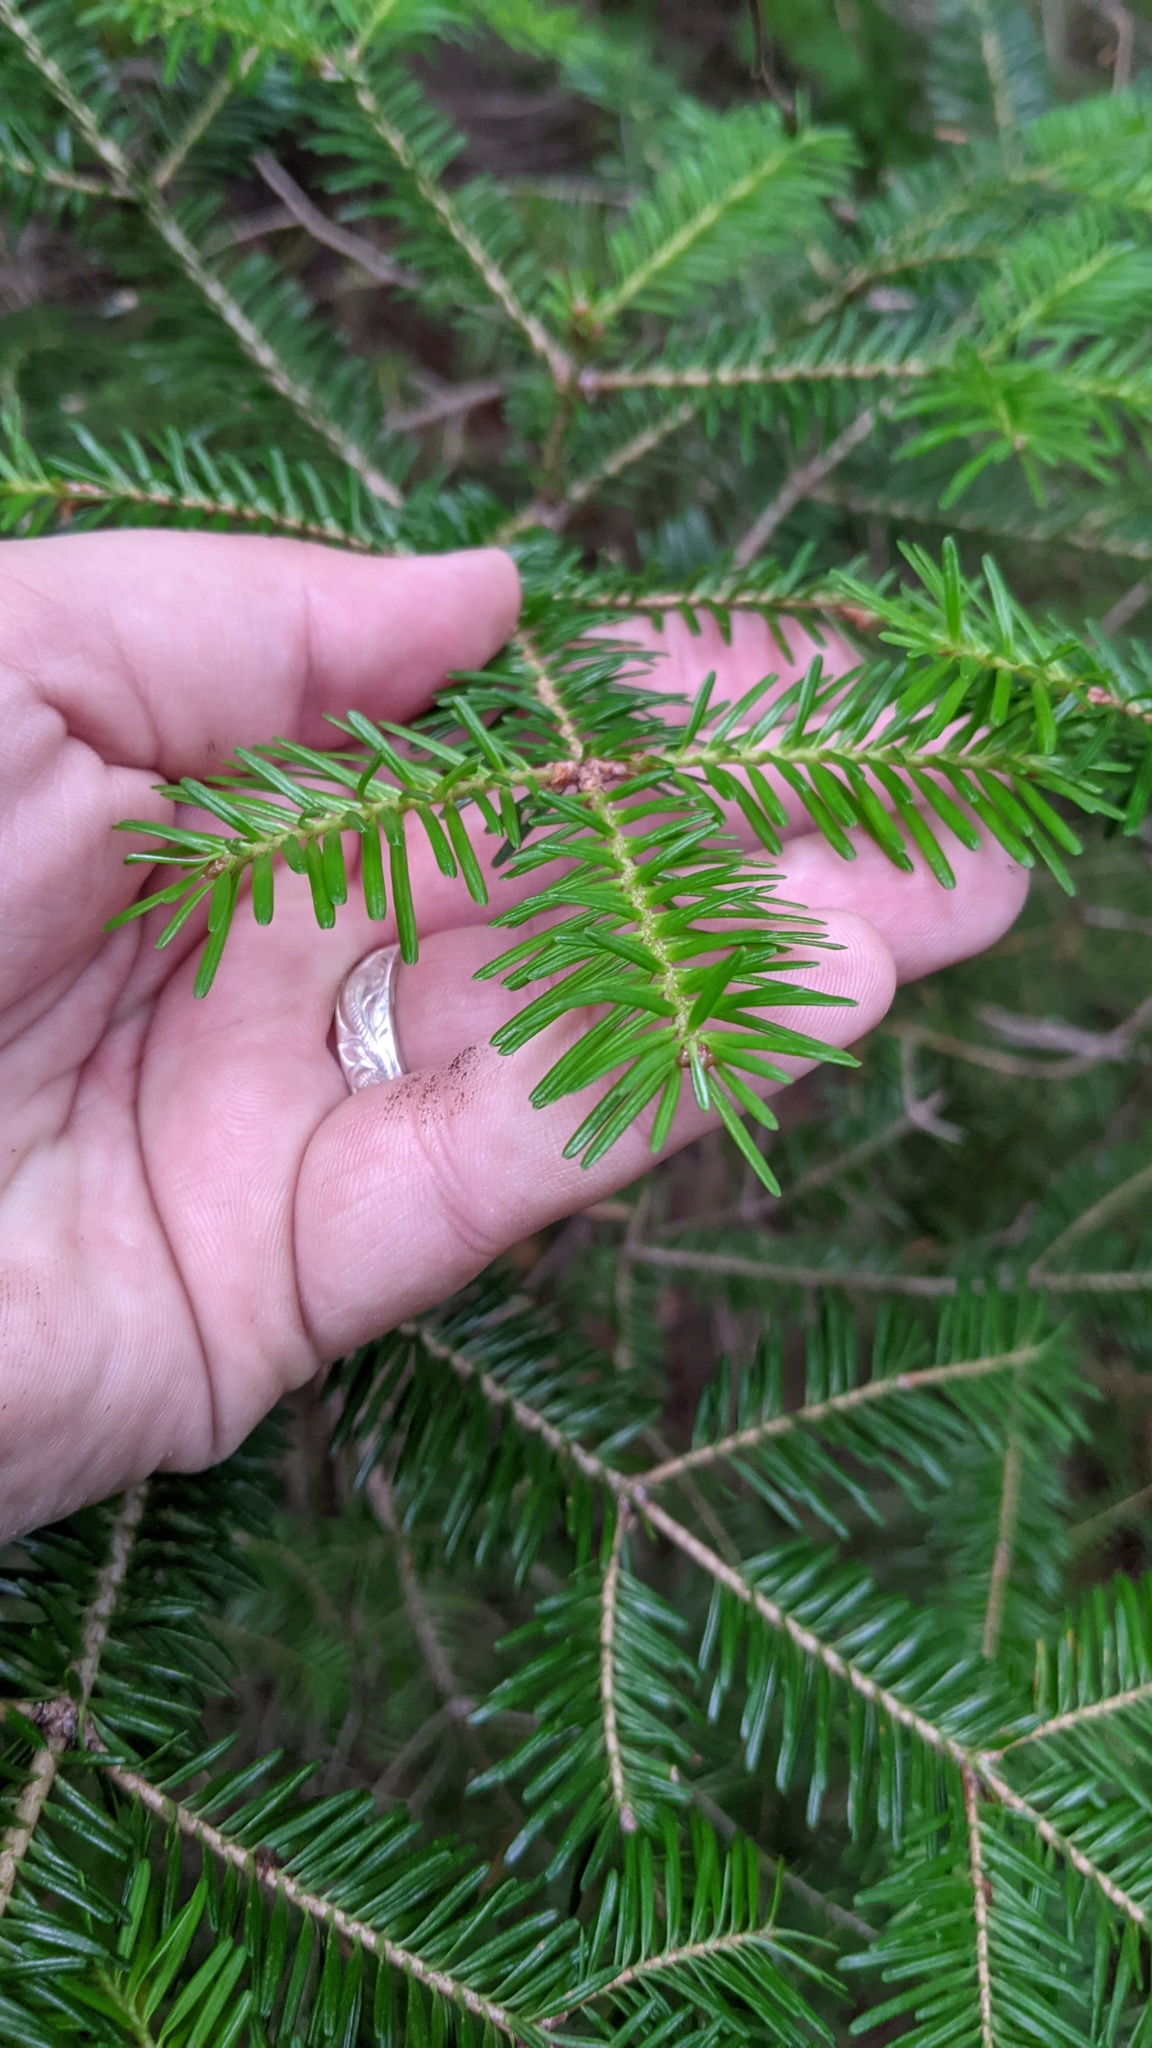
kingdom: Plantae
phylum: Tracheophyta
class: Pinopsida
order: Pinales
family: Pinaceae
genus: Abies
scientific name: Abies balsamea
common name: Balsam fir
